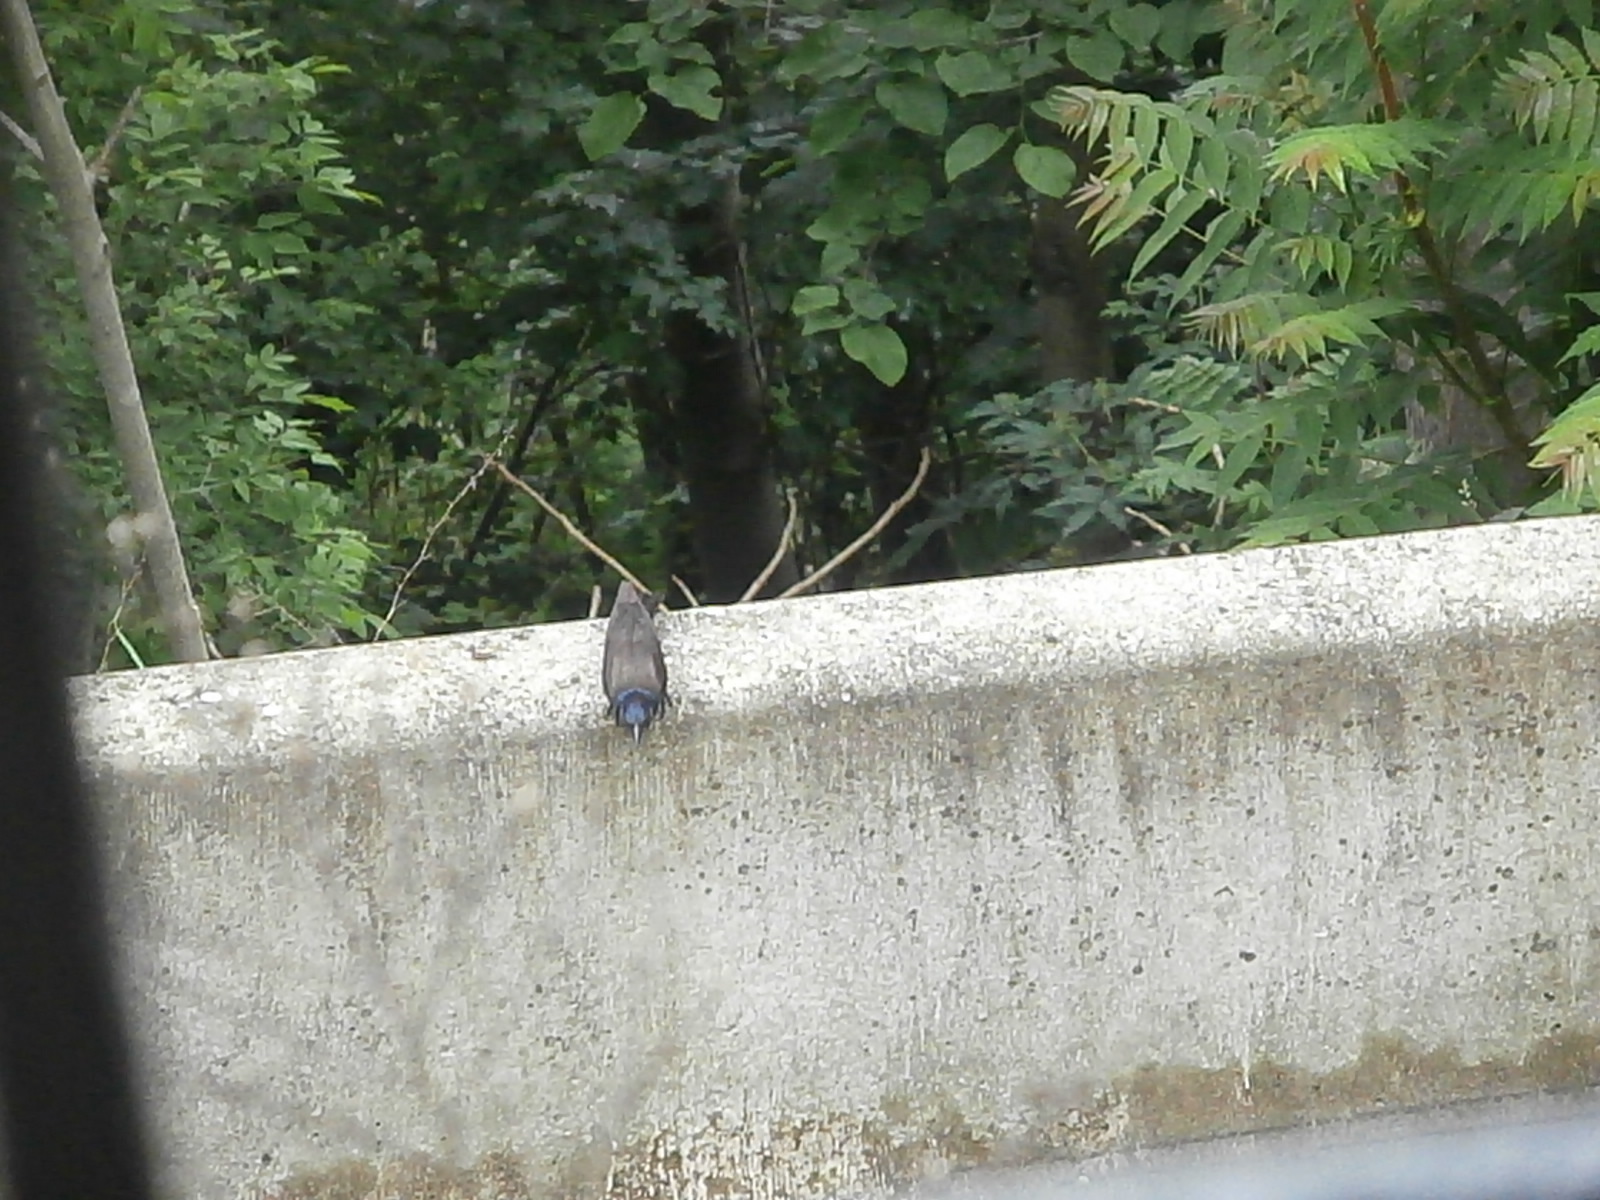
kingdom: Animalia
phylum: Chordata
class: Aves
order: Passeriformes
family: Icteridae
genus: Quiscalus
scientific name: Quiscalus quiscula
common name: Common grackle
